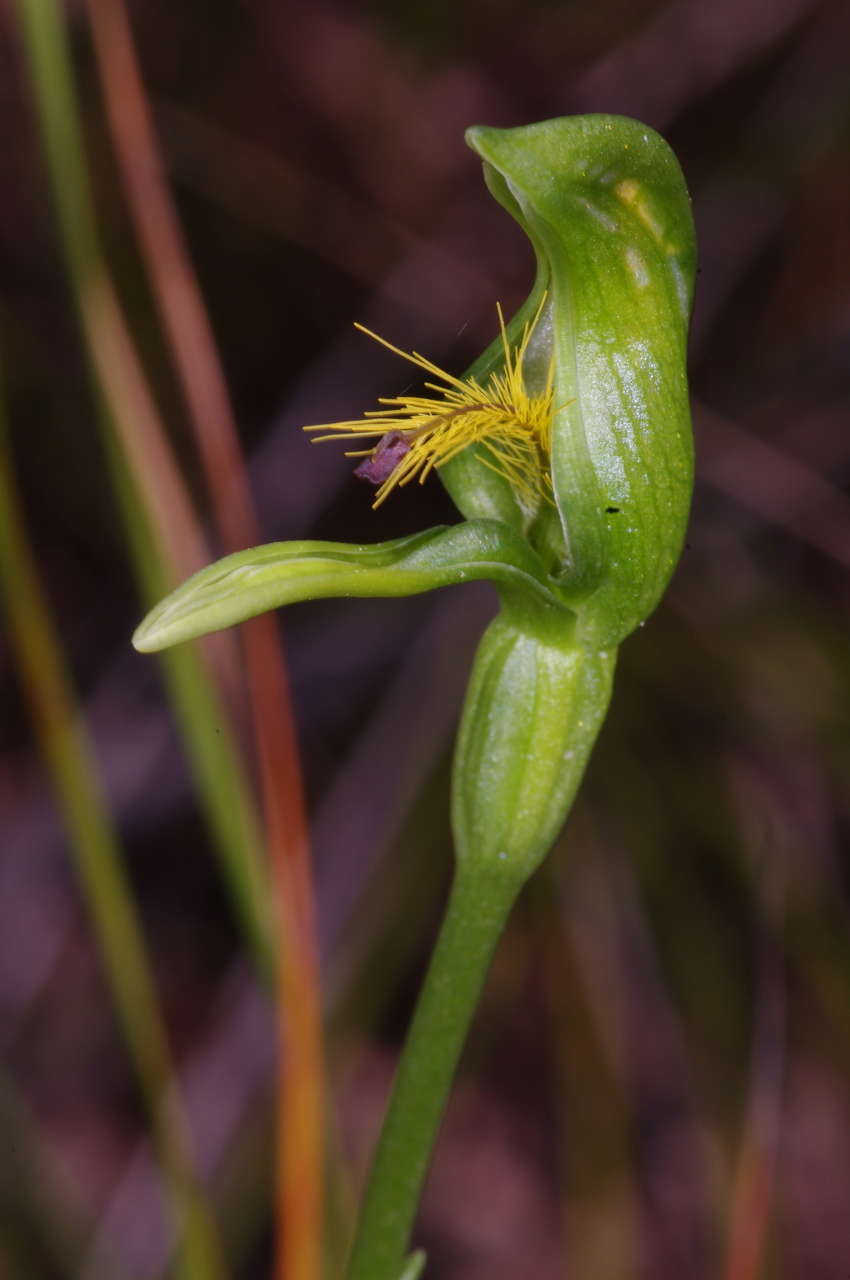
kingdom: Plantae
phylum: Tracheophyta
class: Liliopsida
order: Asparagales
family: Orchidaceae
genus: Pterostylis
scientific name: Pterostylis plumosa
